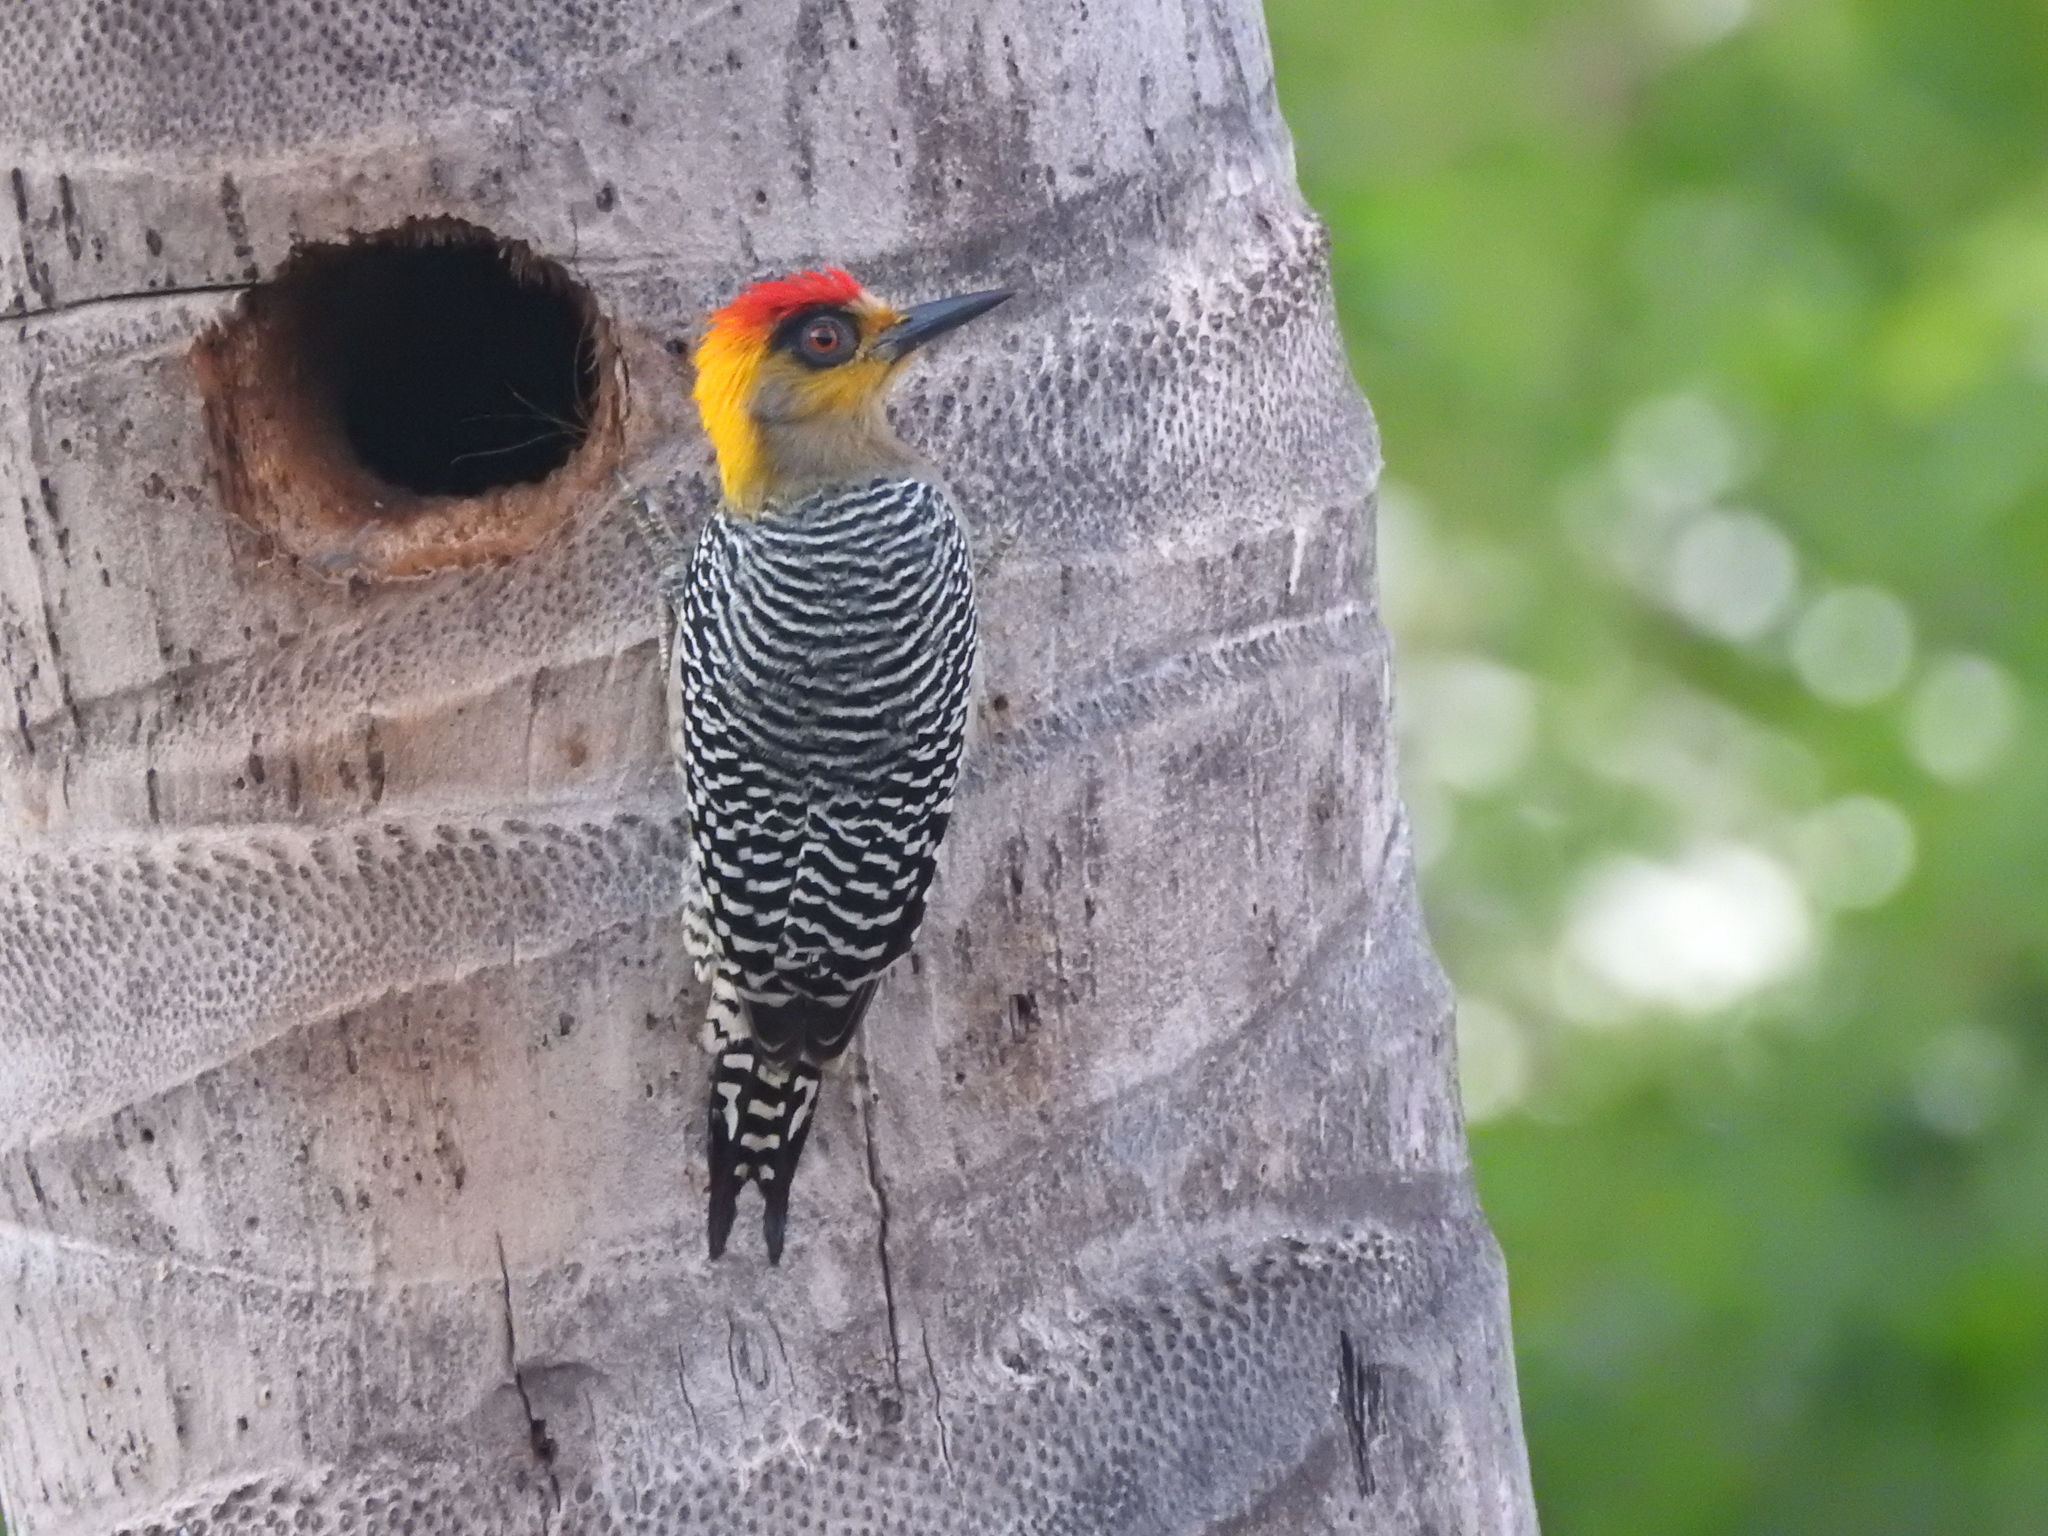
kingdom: Animalia
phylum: Chordata
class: Aves
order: Piciformes
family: Picidae
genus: Melanerpes
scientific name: Melanerpes chrysogenys
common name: Golden-cheeked woodpecker
